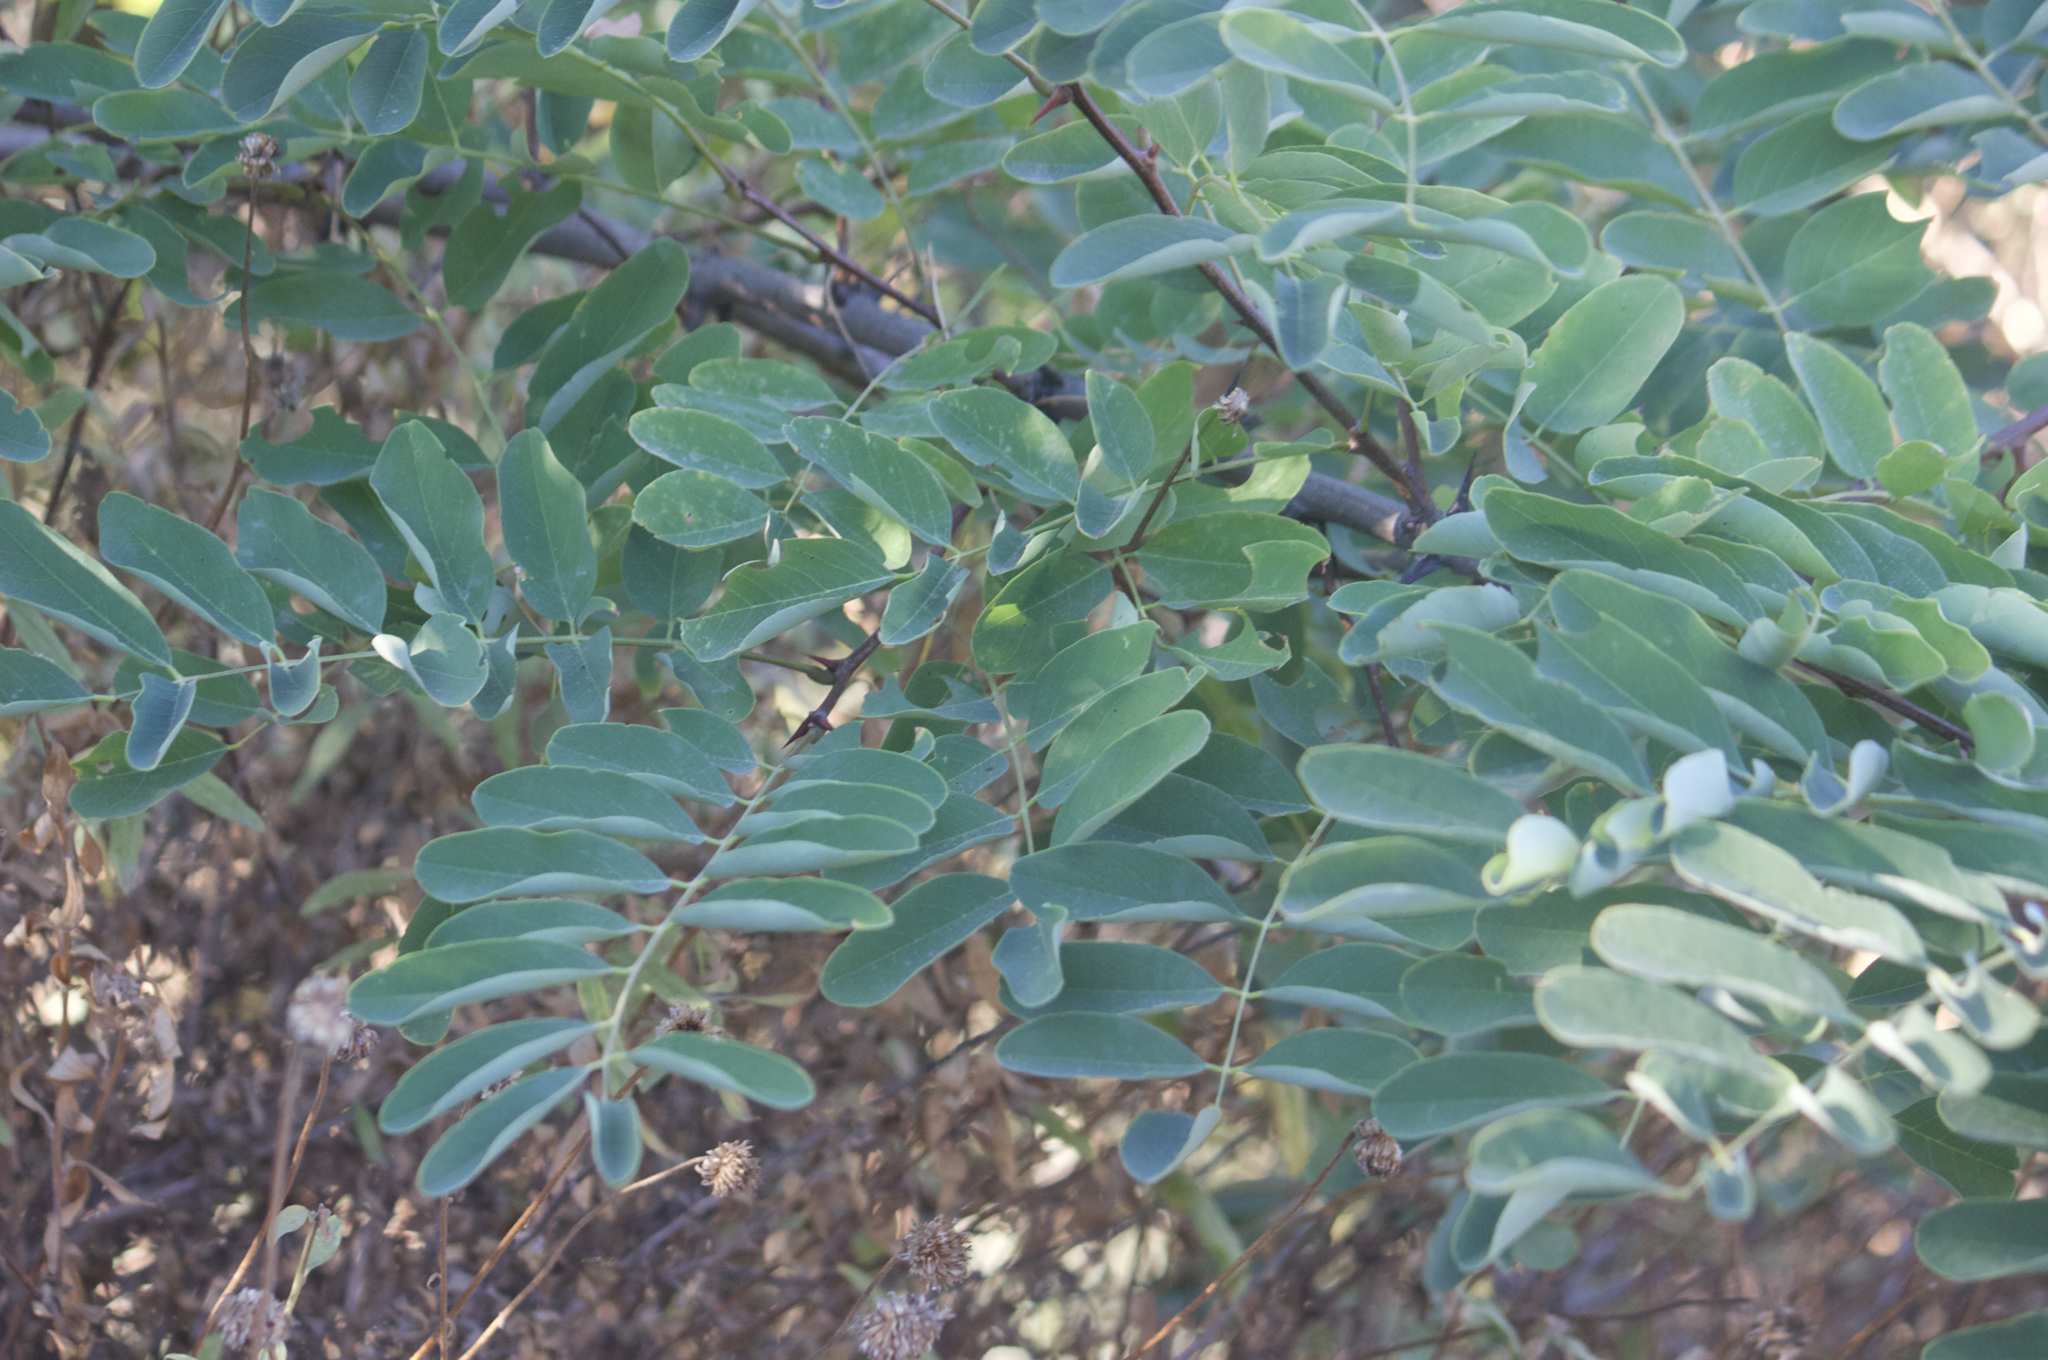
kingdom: Plantae
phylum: Tracheophyta
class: Magnoliopsida
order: Fabales
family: Fabaceae
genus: Robinia
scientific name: Robinia pseudoacacia
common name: Black locust
